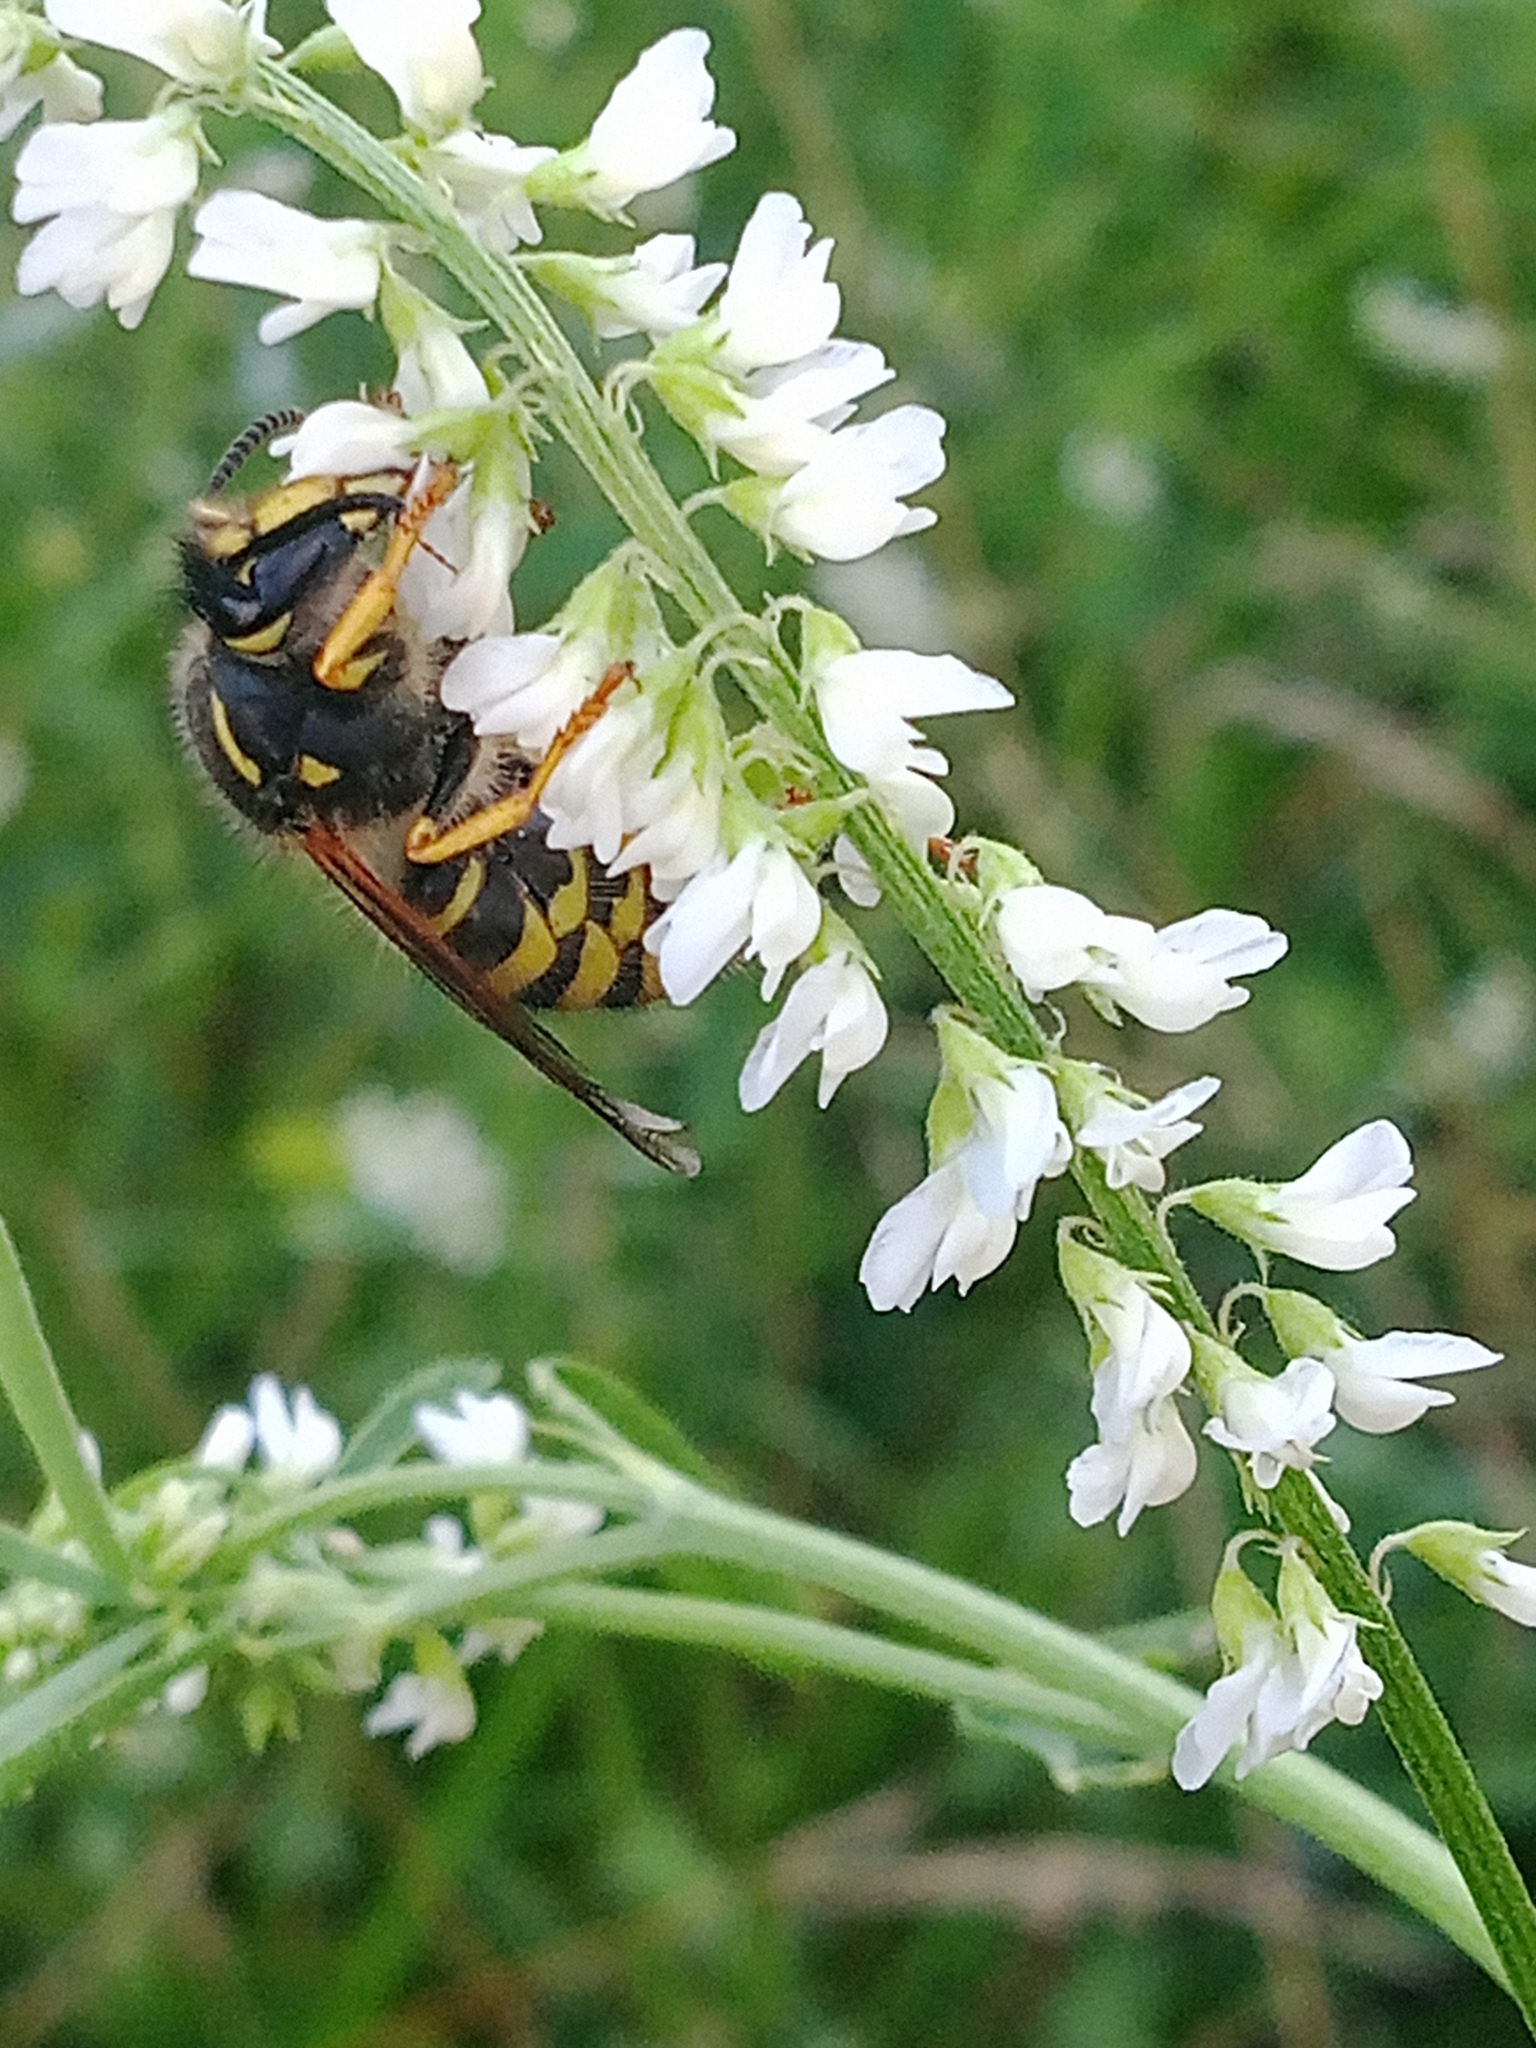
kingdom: Animalia
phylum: Arthropoda
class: Insecta
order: Hymenoptera
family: Vespidae
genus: Dolichovespula
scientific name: Dolichovespula sylvestris
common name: Tree wasp
